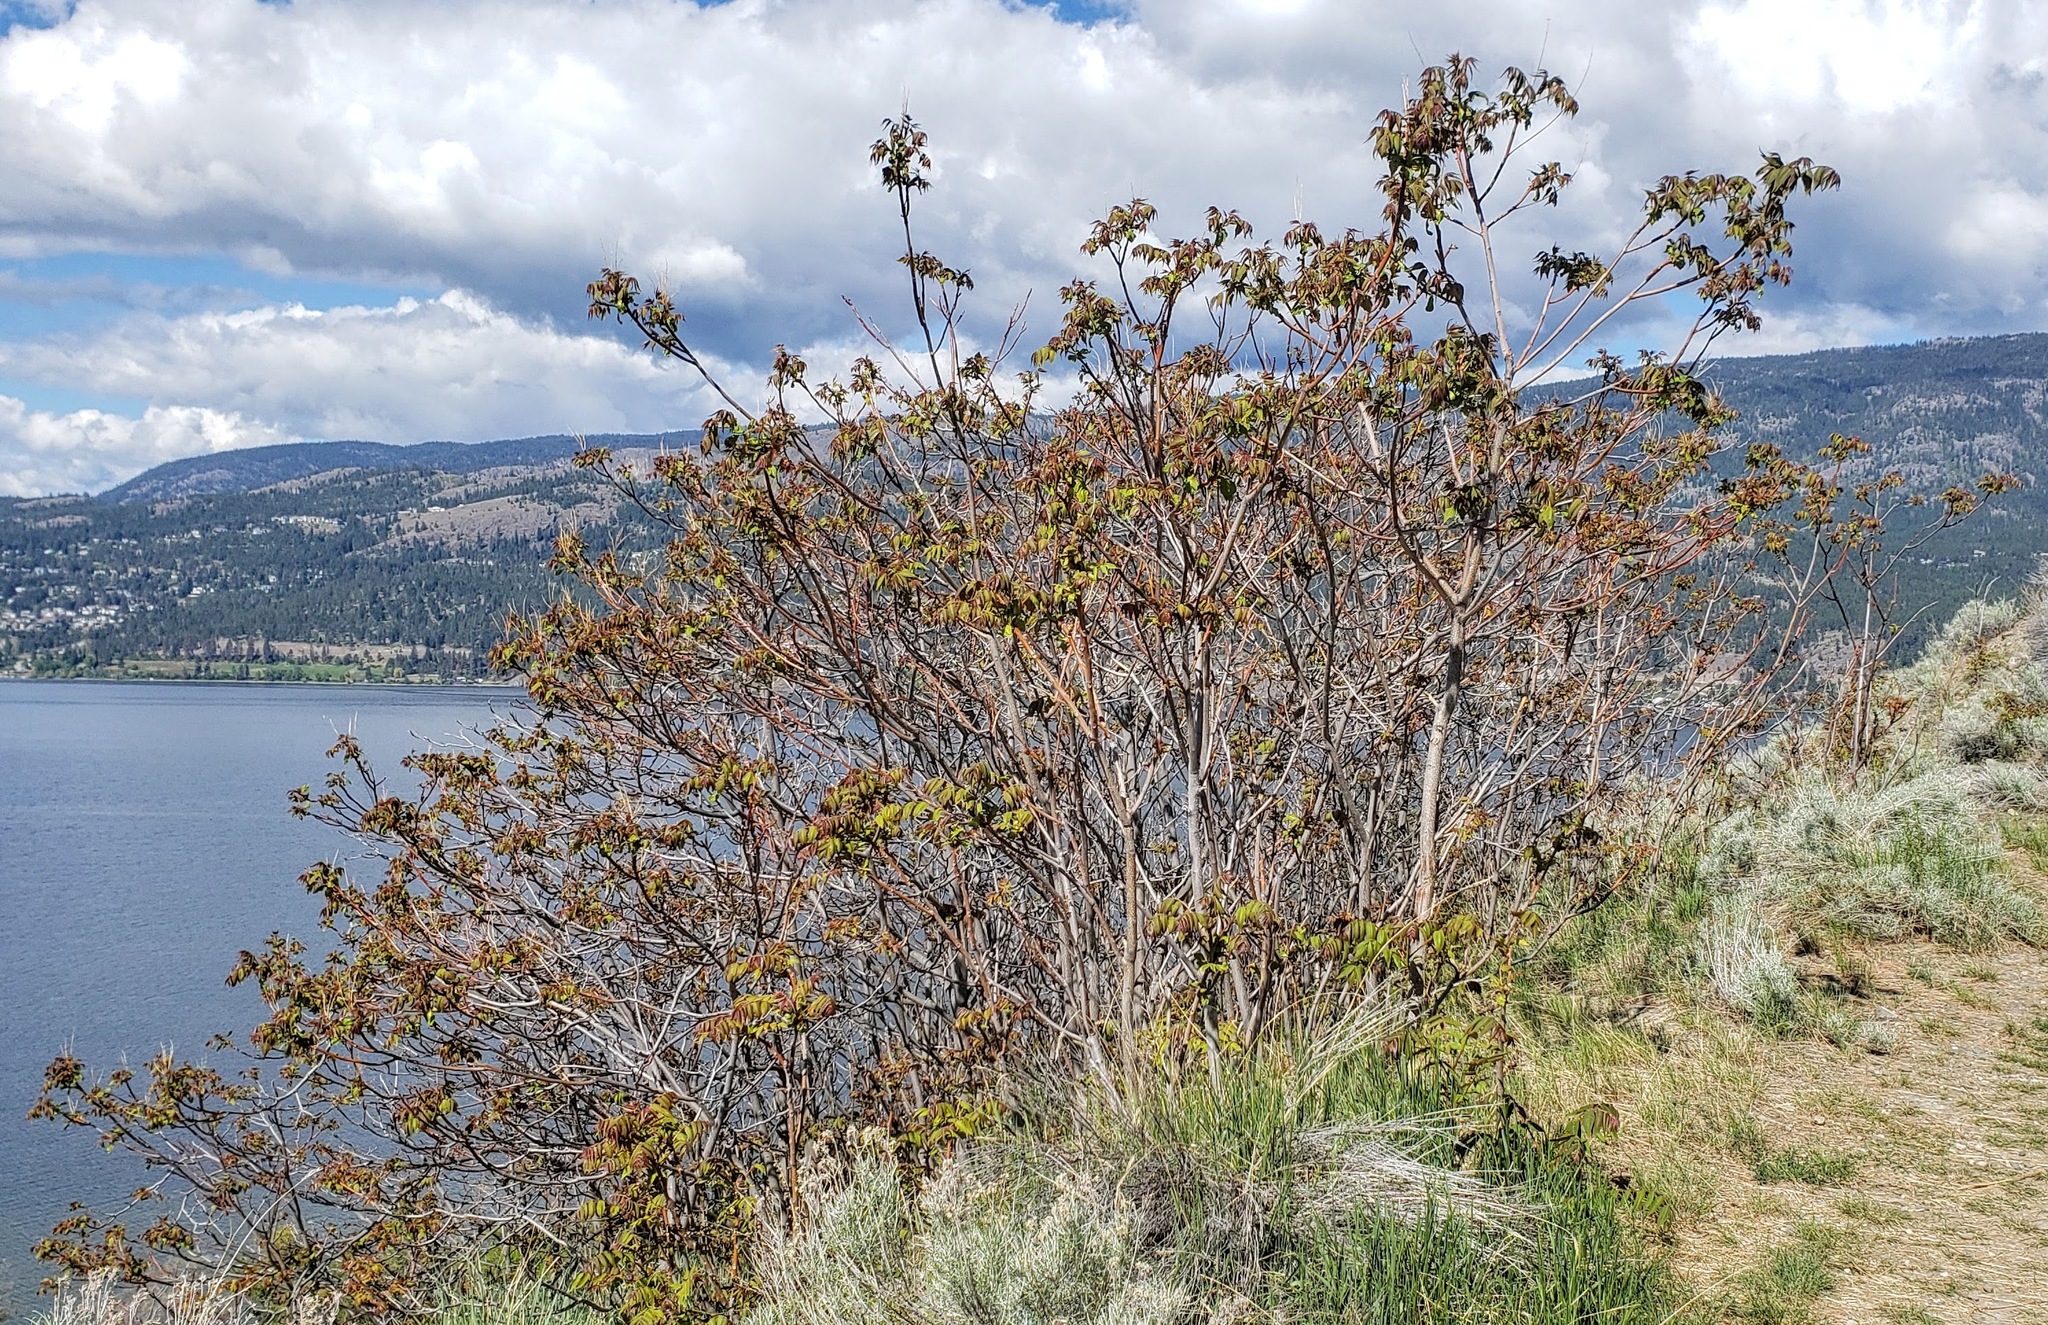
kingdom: Plantae
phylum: Tracheophyta
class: Magnoliopsida
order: Sapindales
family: Simaroubaceae
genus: Ailanthus
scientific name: Ailanthus altissima
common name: Tree-of-heaven
